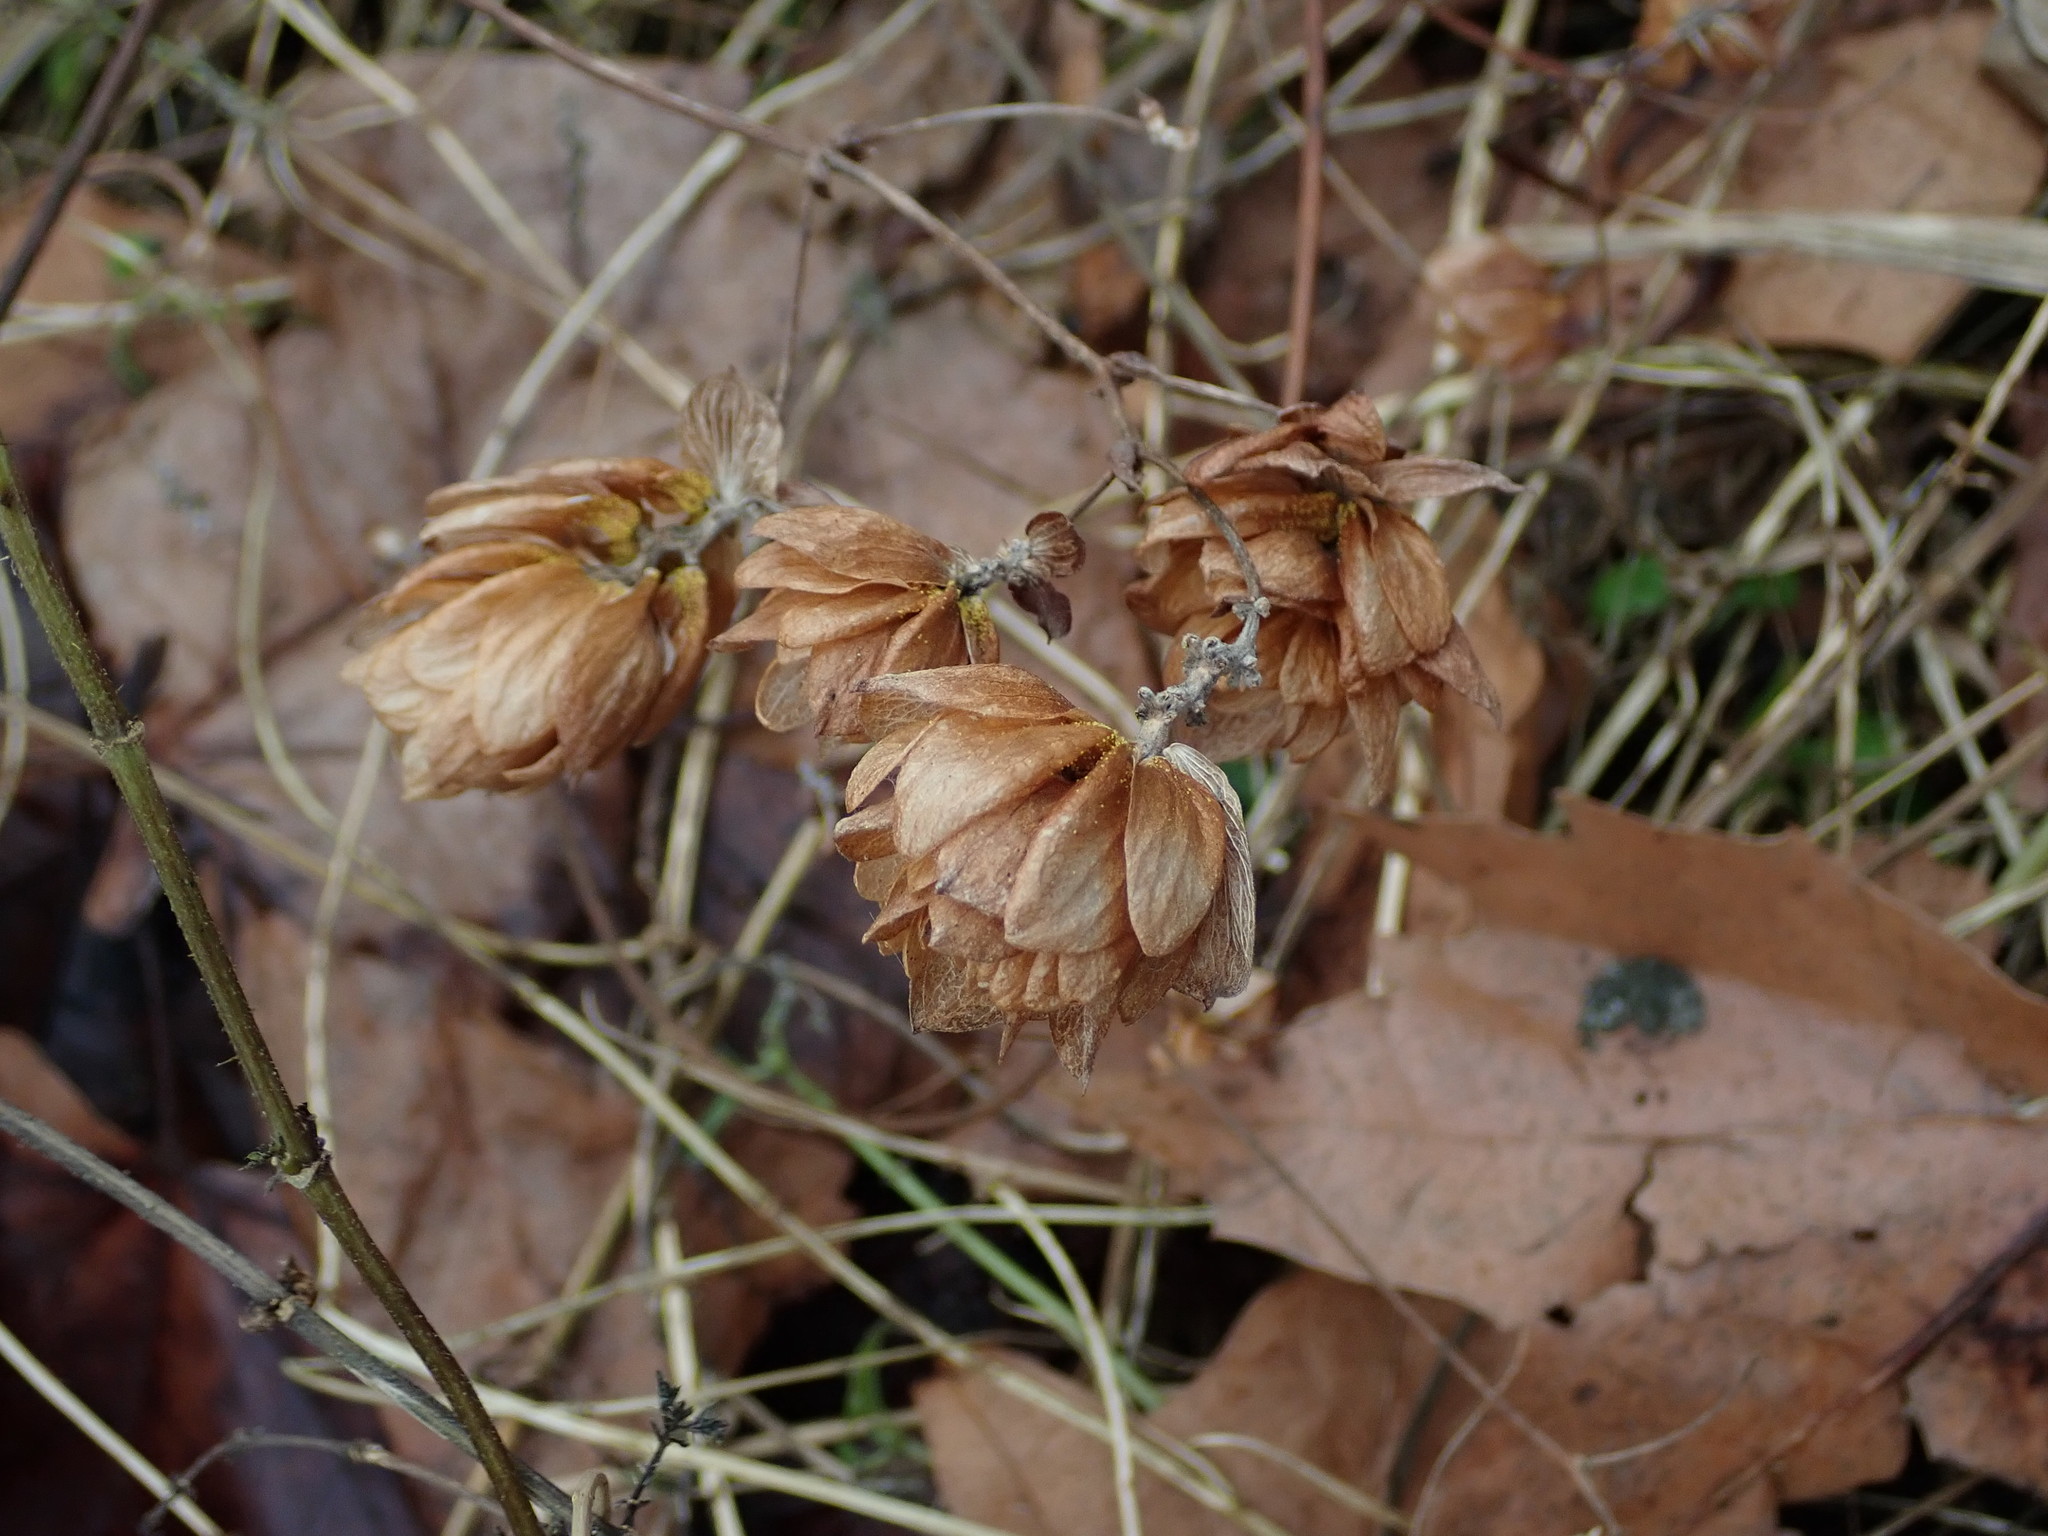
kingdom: Plantae
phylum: Tracheophyta
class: Magnoliopsida
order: Rosales
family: Cannabaceae
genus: Humulus
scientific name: Humulus lupulus
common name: Hop
